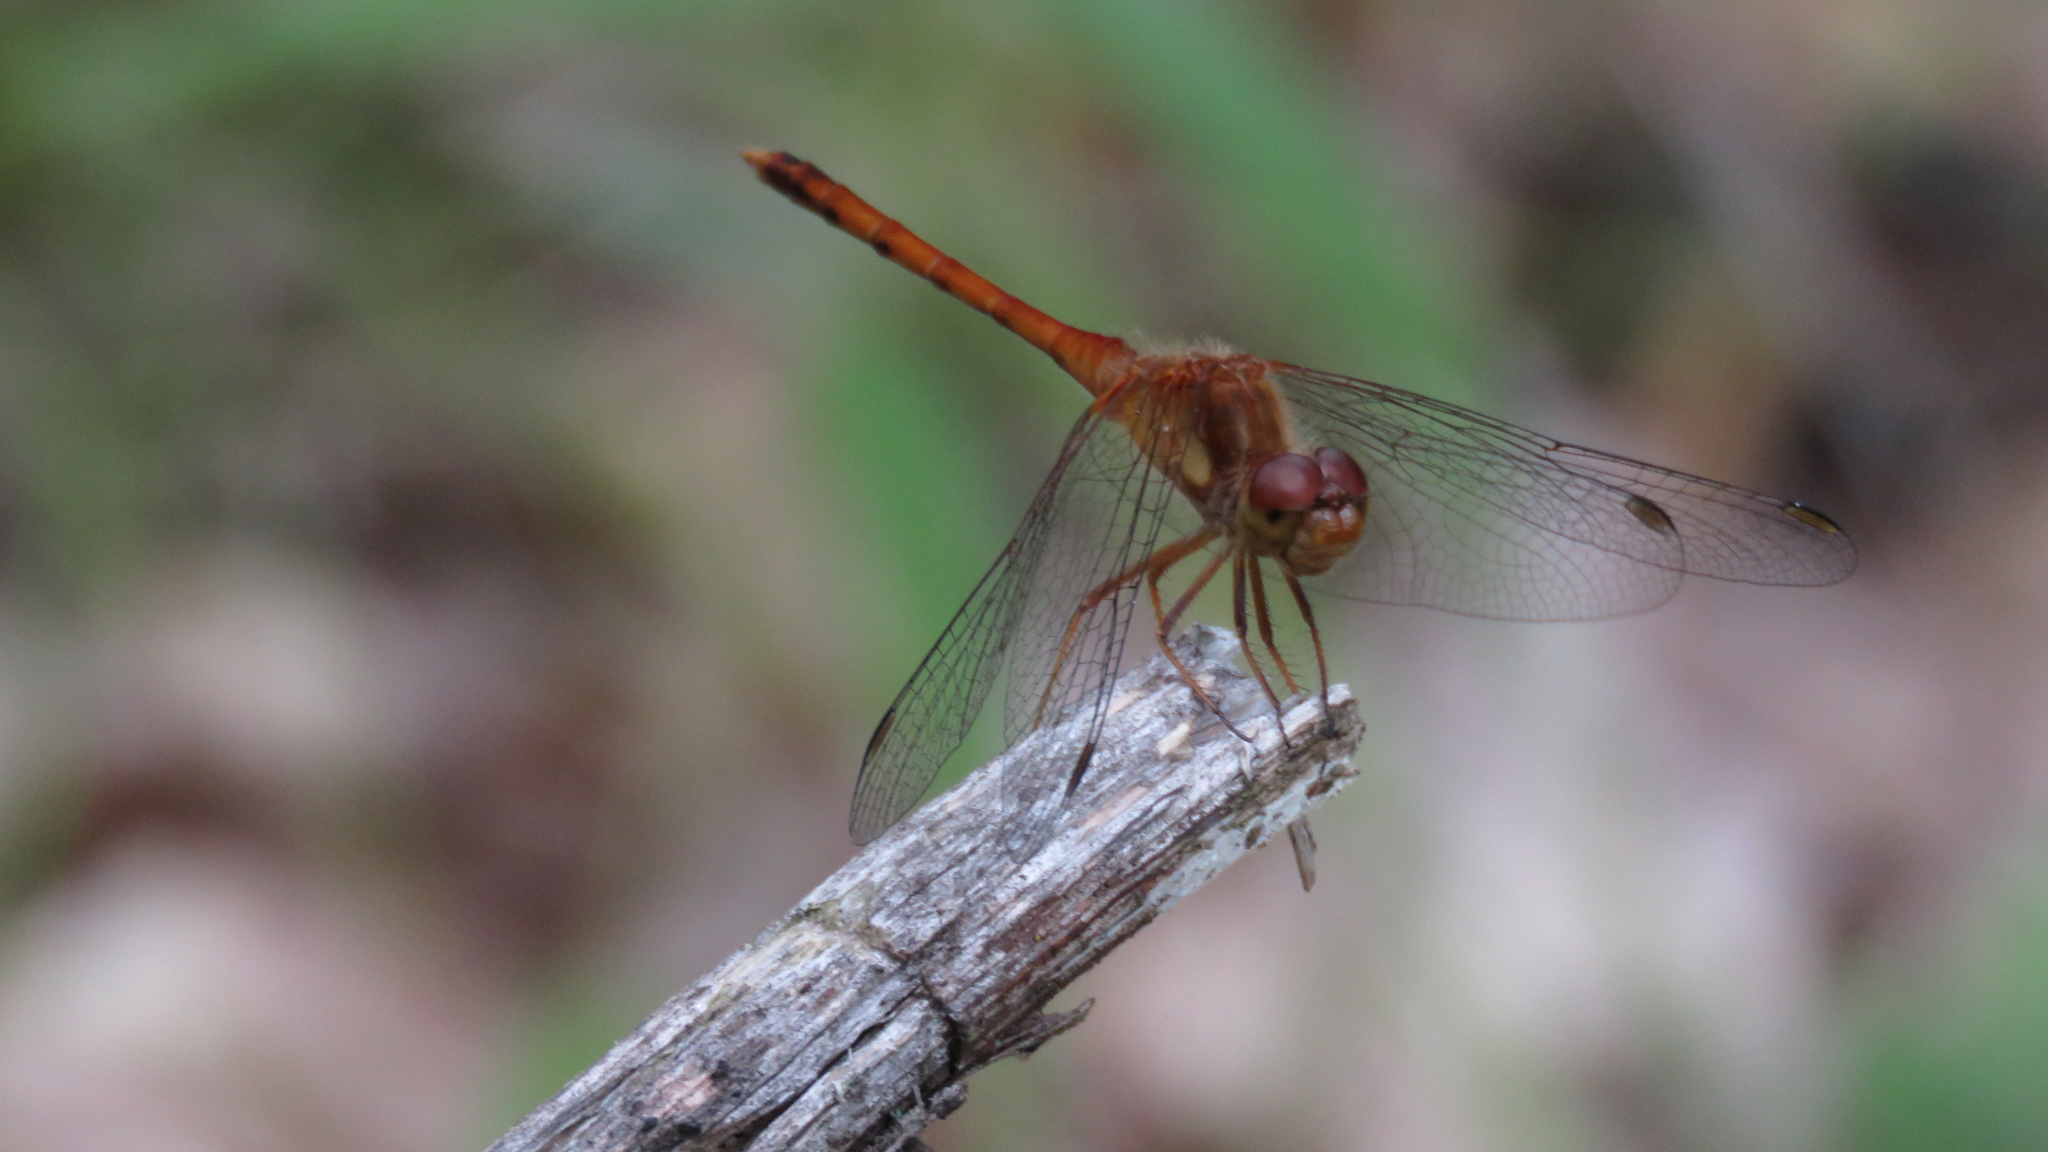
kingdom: Animalia
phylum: Arthropoda
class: Insecta
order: Odonata
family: Libellulidae
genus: Sympetrum
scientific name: Sympetrum vicinum
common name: Autumn meadowhawk
